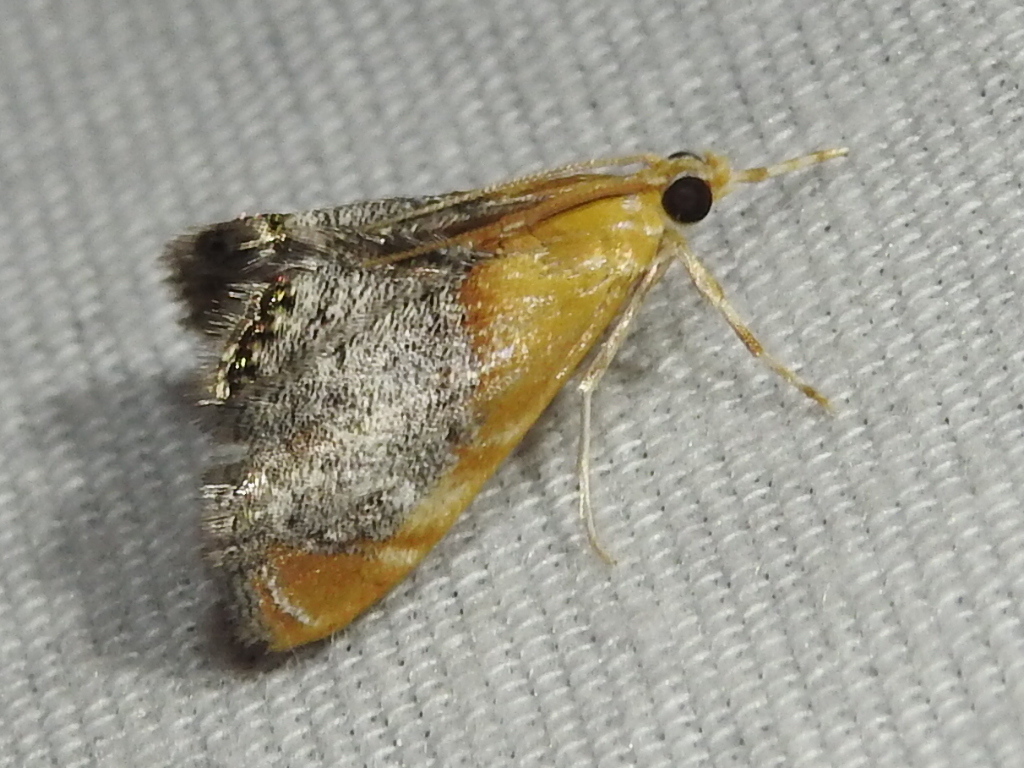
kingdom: Animalia
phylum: Arthropoda
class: Insecta
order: Lepidoptera
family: Crambidae
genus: Chalcoela
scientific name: Chalcoela iphitalis
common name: Sooty-winged chalcoela moth
